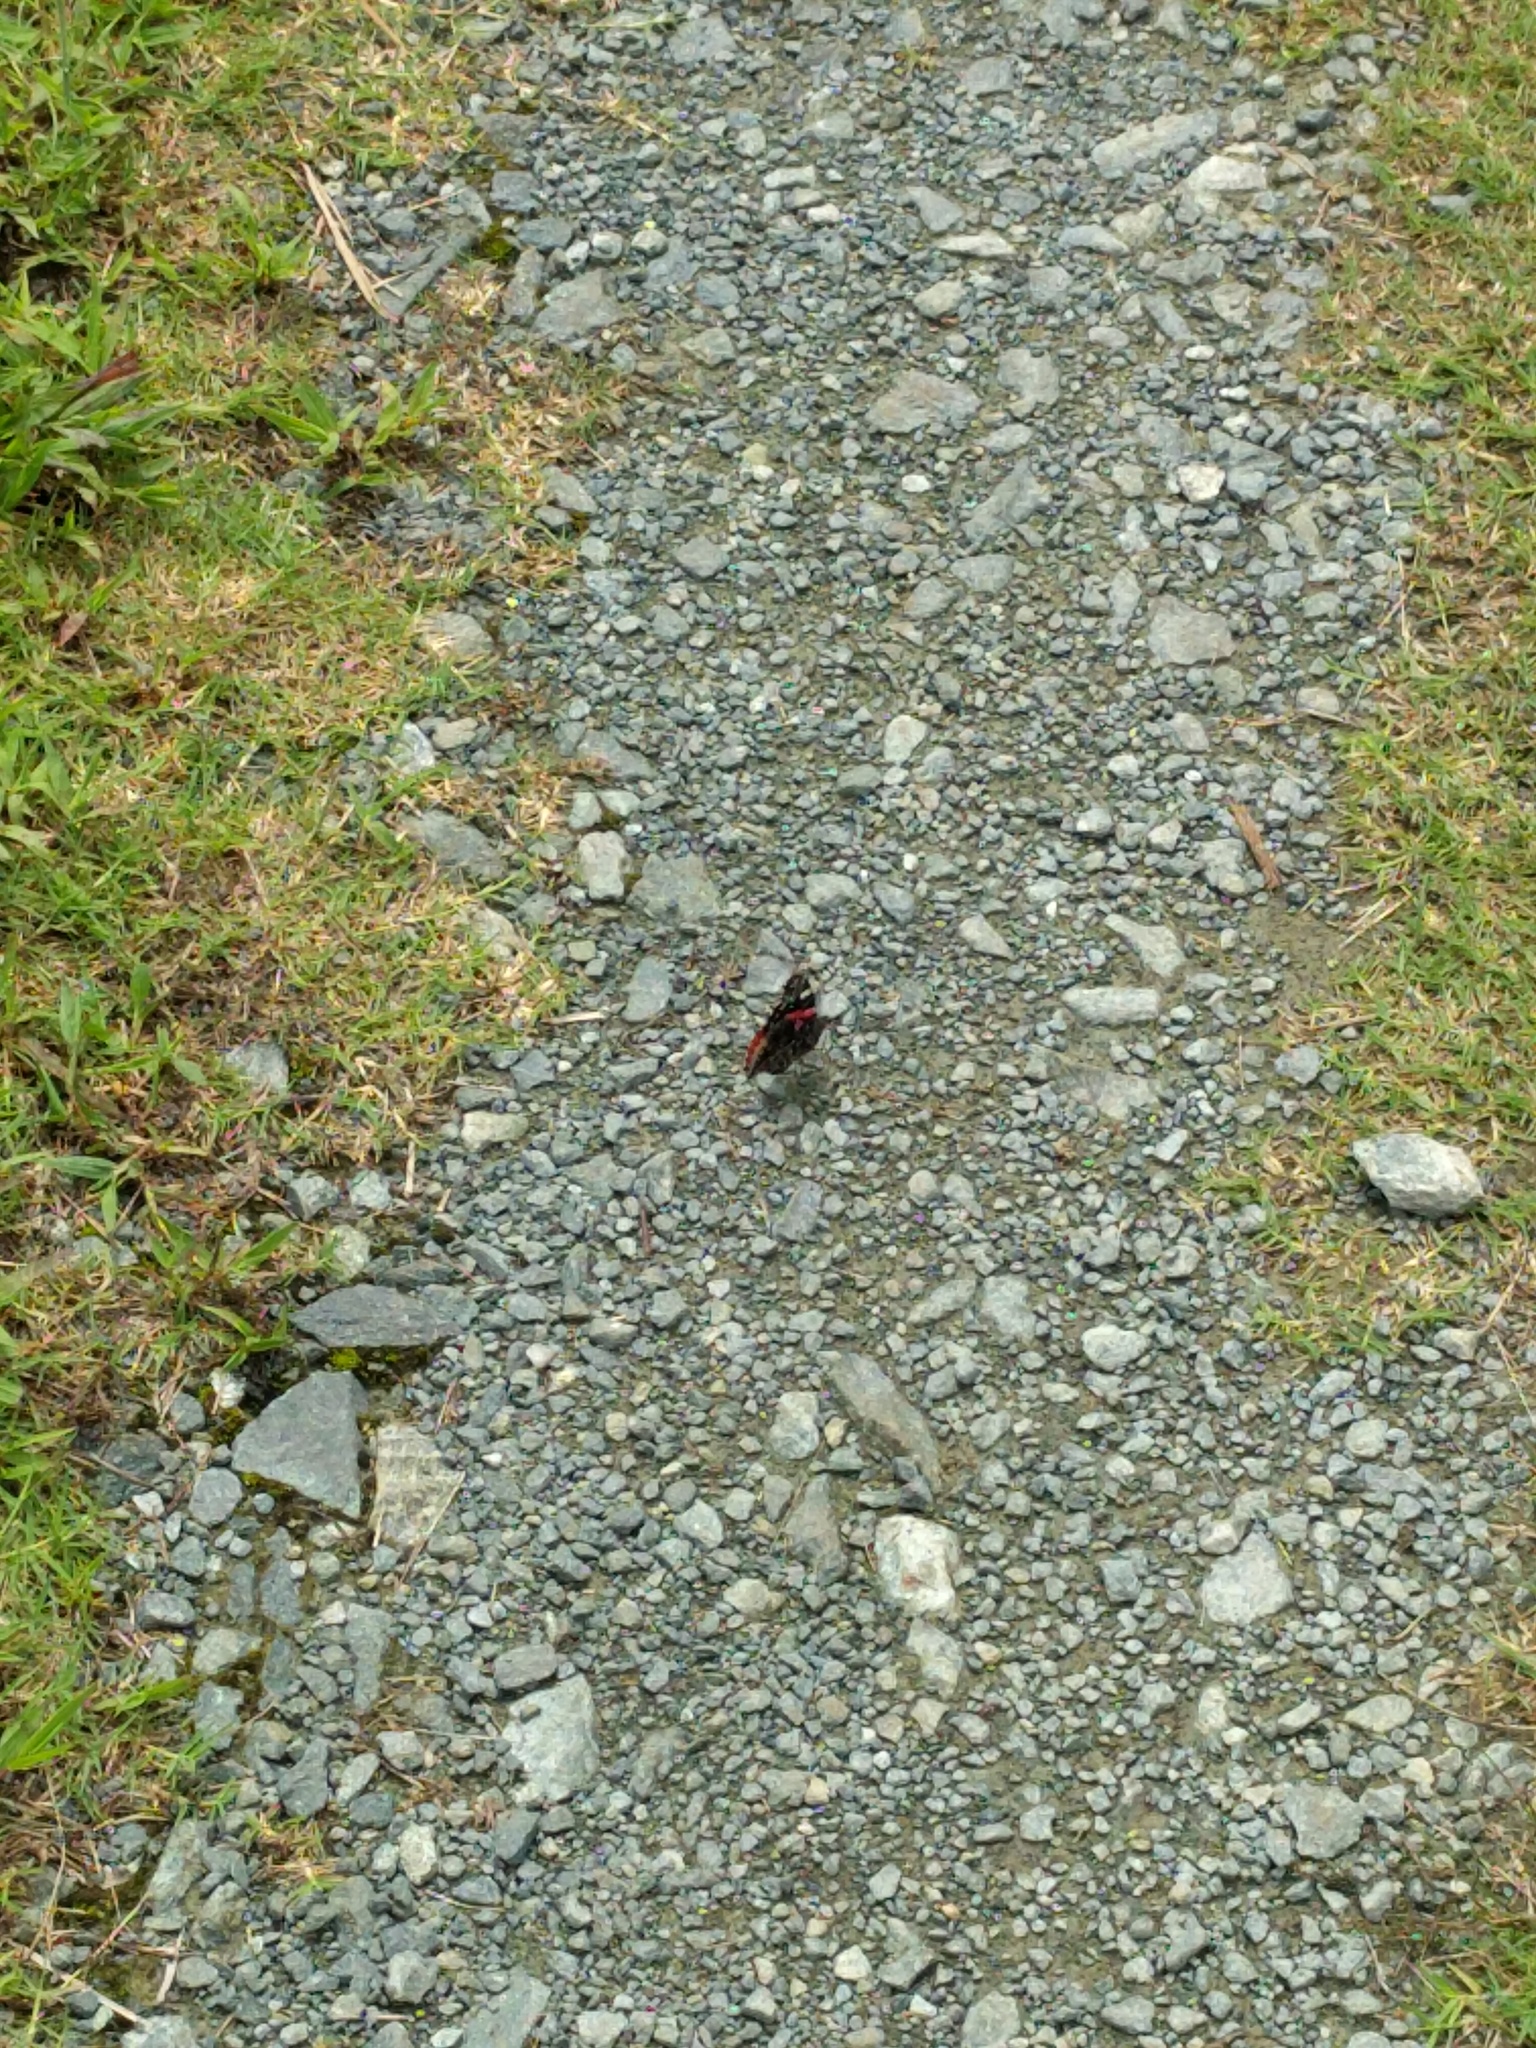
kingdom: Animalia
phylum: Arthropoda
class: Insecta
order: Lepidoptera
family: Nymphalidae
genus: Vanessa
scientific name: Vanessa atalanta
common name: Red admiral
